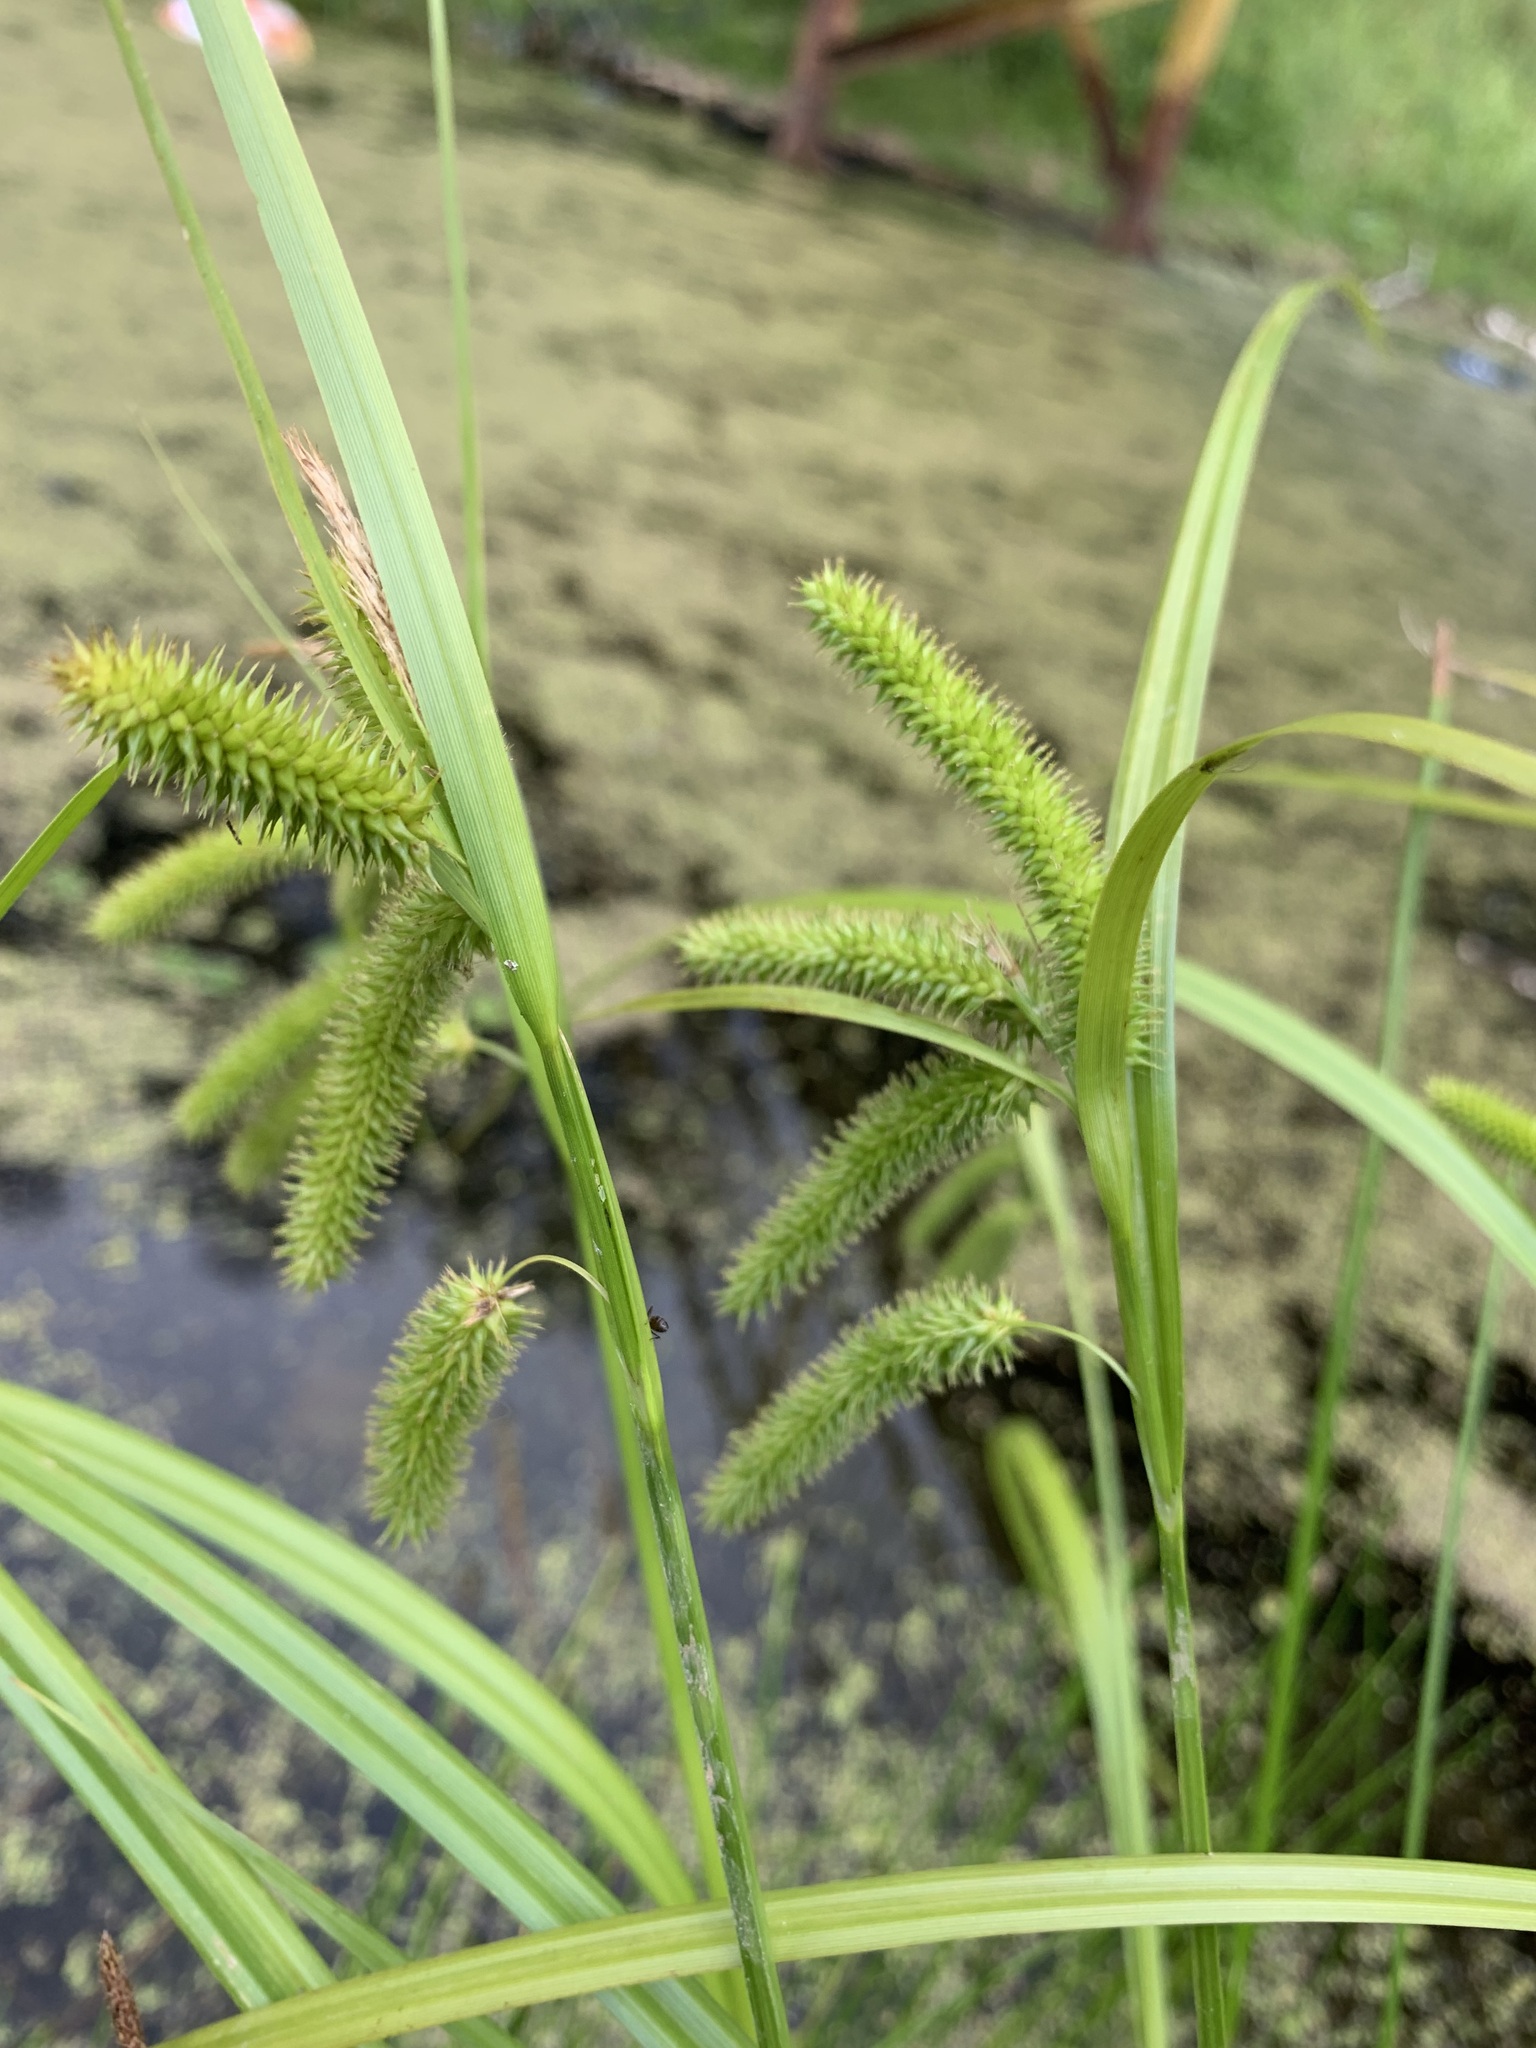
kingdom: Plantae
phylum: Tracheophyta
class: Liliopsida
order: Poales
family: Cyperaceae
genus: Carex
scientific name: Carex pseudocyperus
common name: Cyperus sedge
